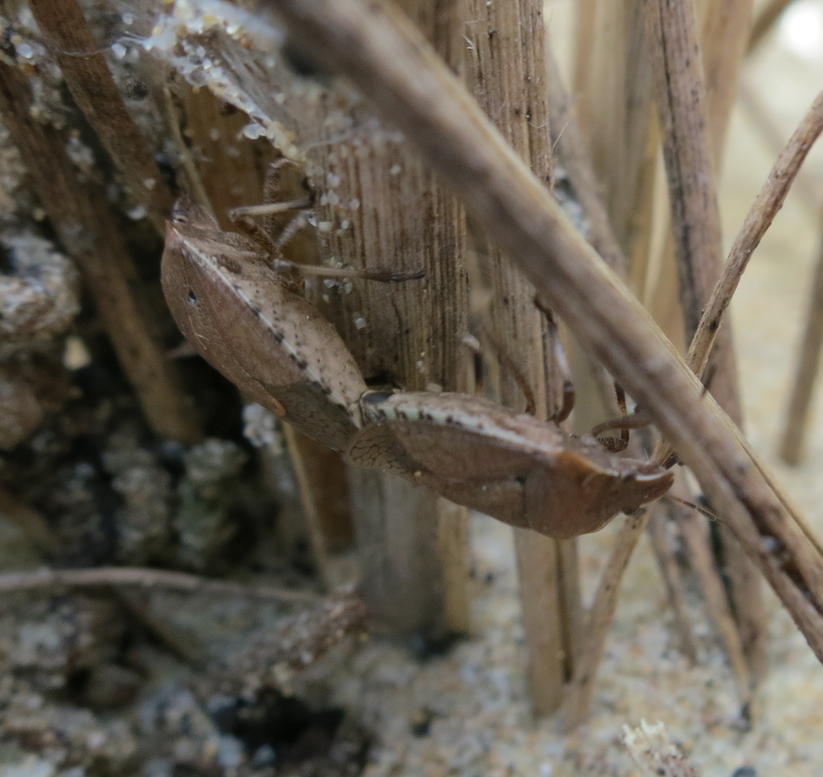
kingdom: Animalia
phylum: Arthropoda
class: Insecta
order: Hemiptera
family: Pentatomidae
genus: Dictyotus
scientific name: Dictyotus caenosus
